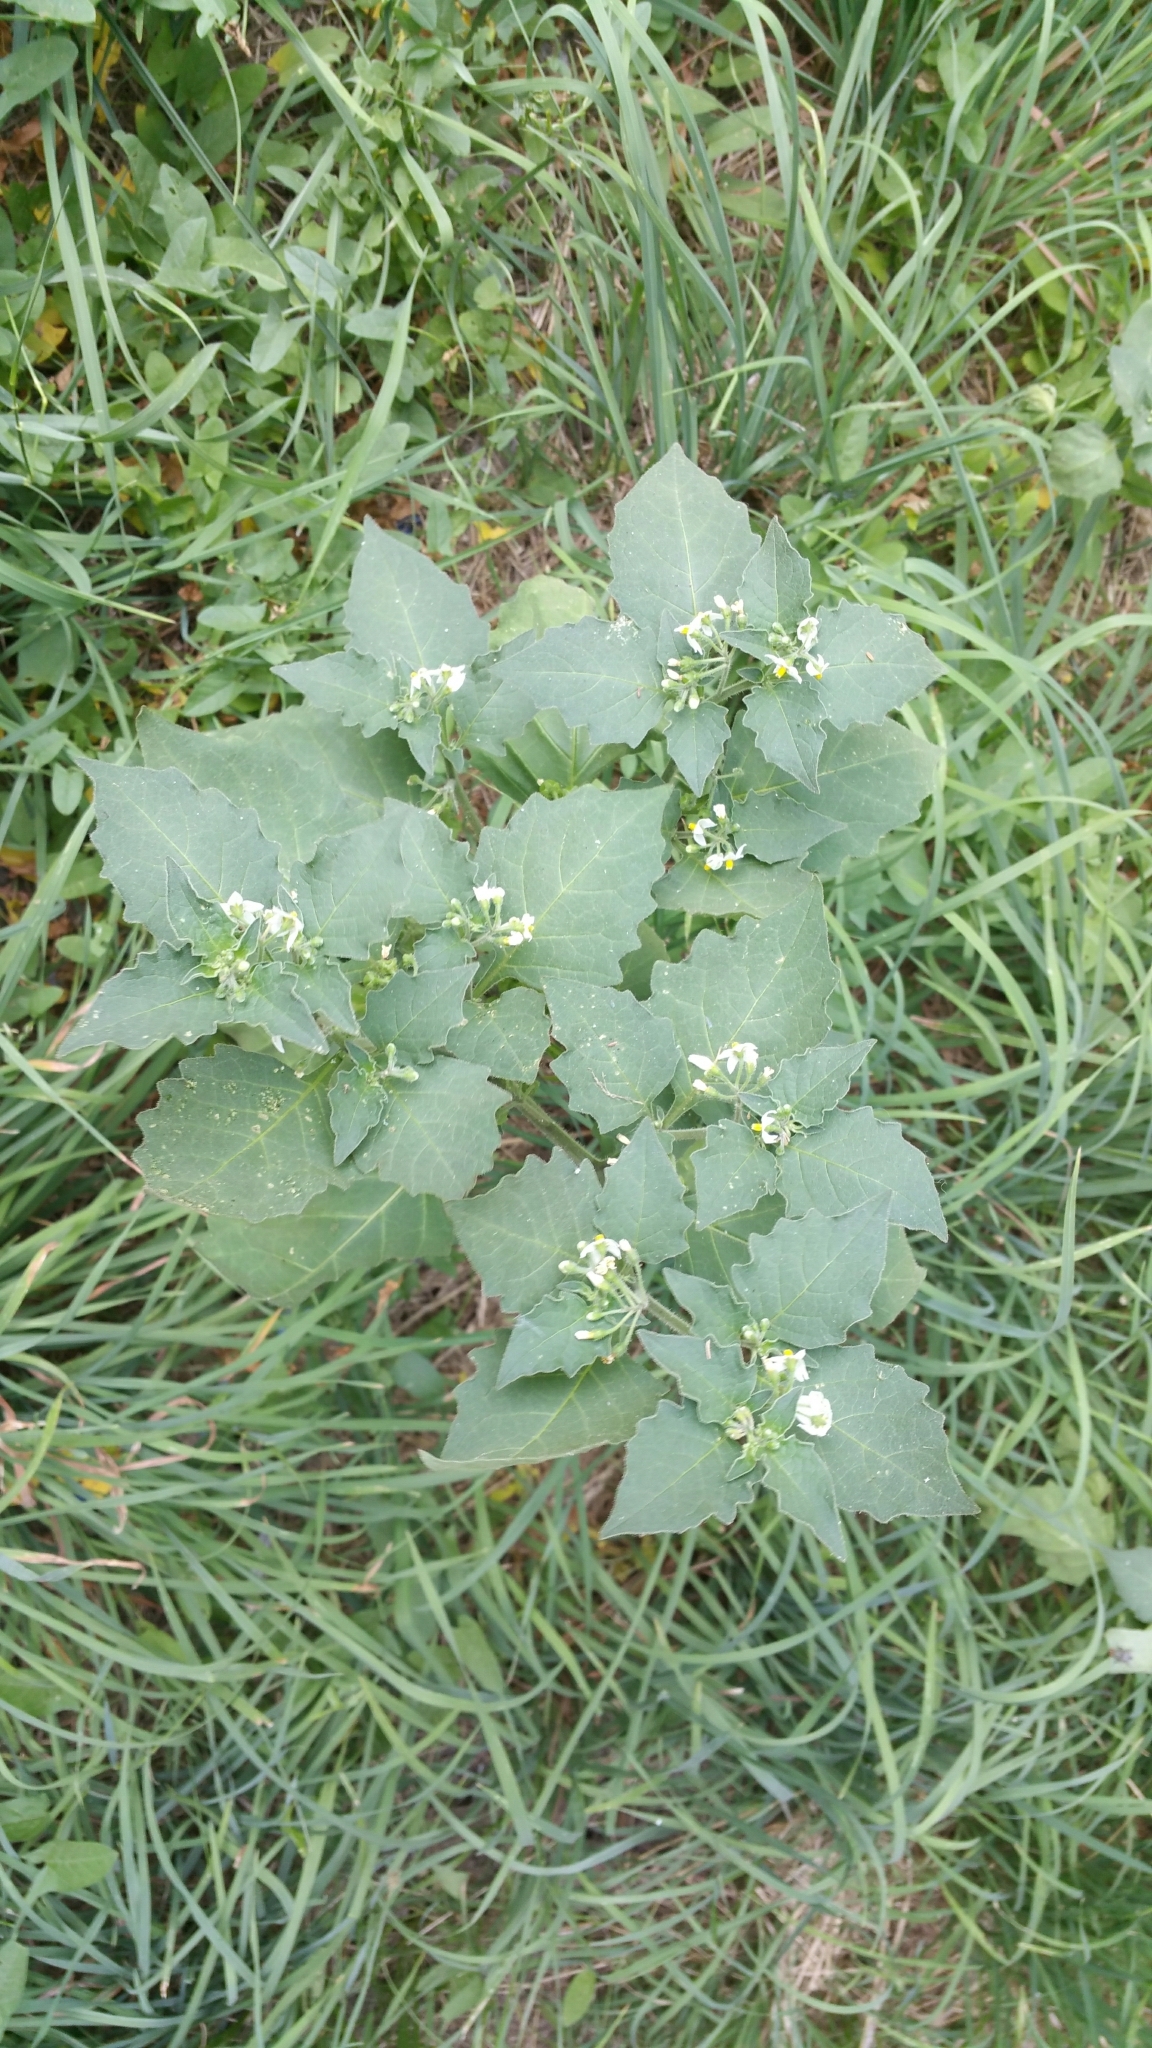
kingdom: Plantae
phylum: Tracheophyta
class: Magnoliopsida
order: Solanales
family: Solanaceae
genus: Solanum
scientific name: Solanum nigrum
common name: Black nightshade
